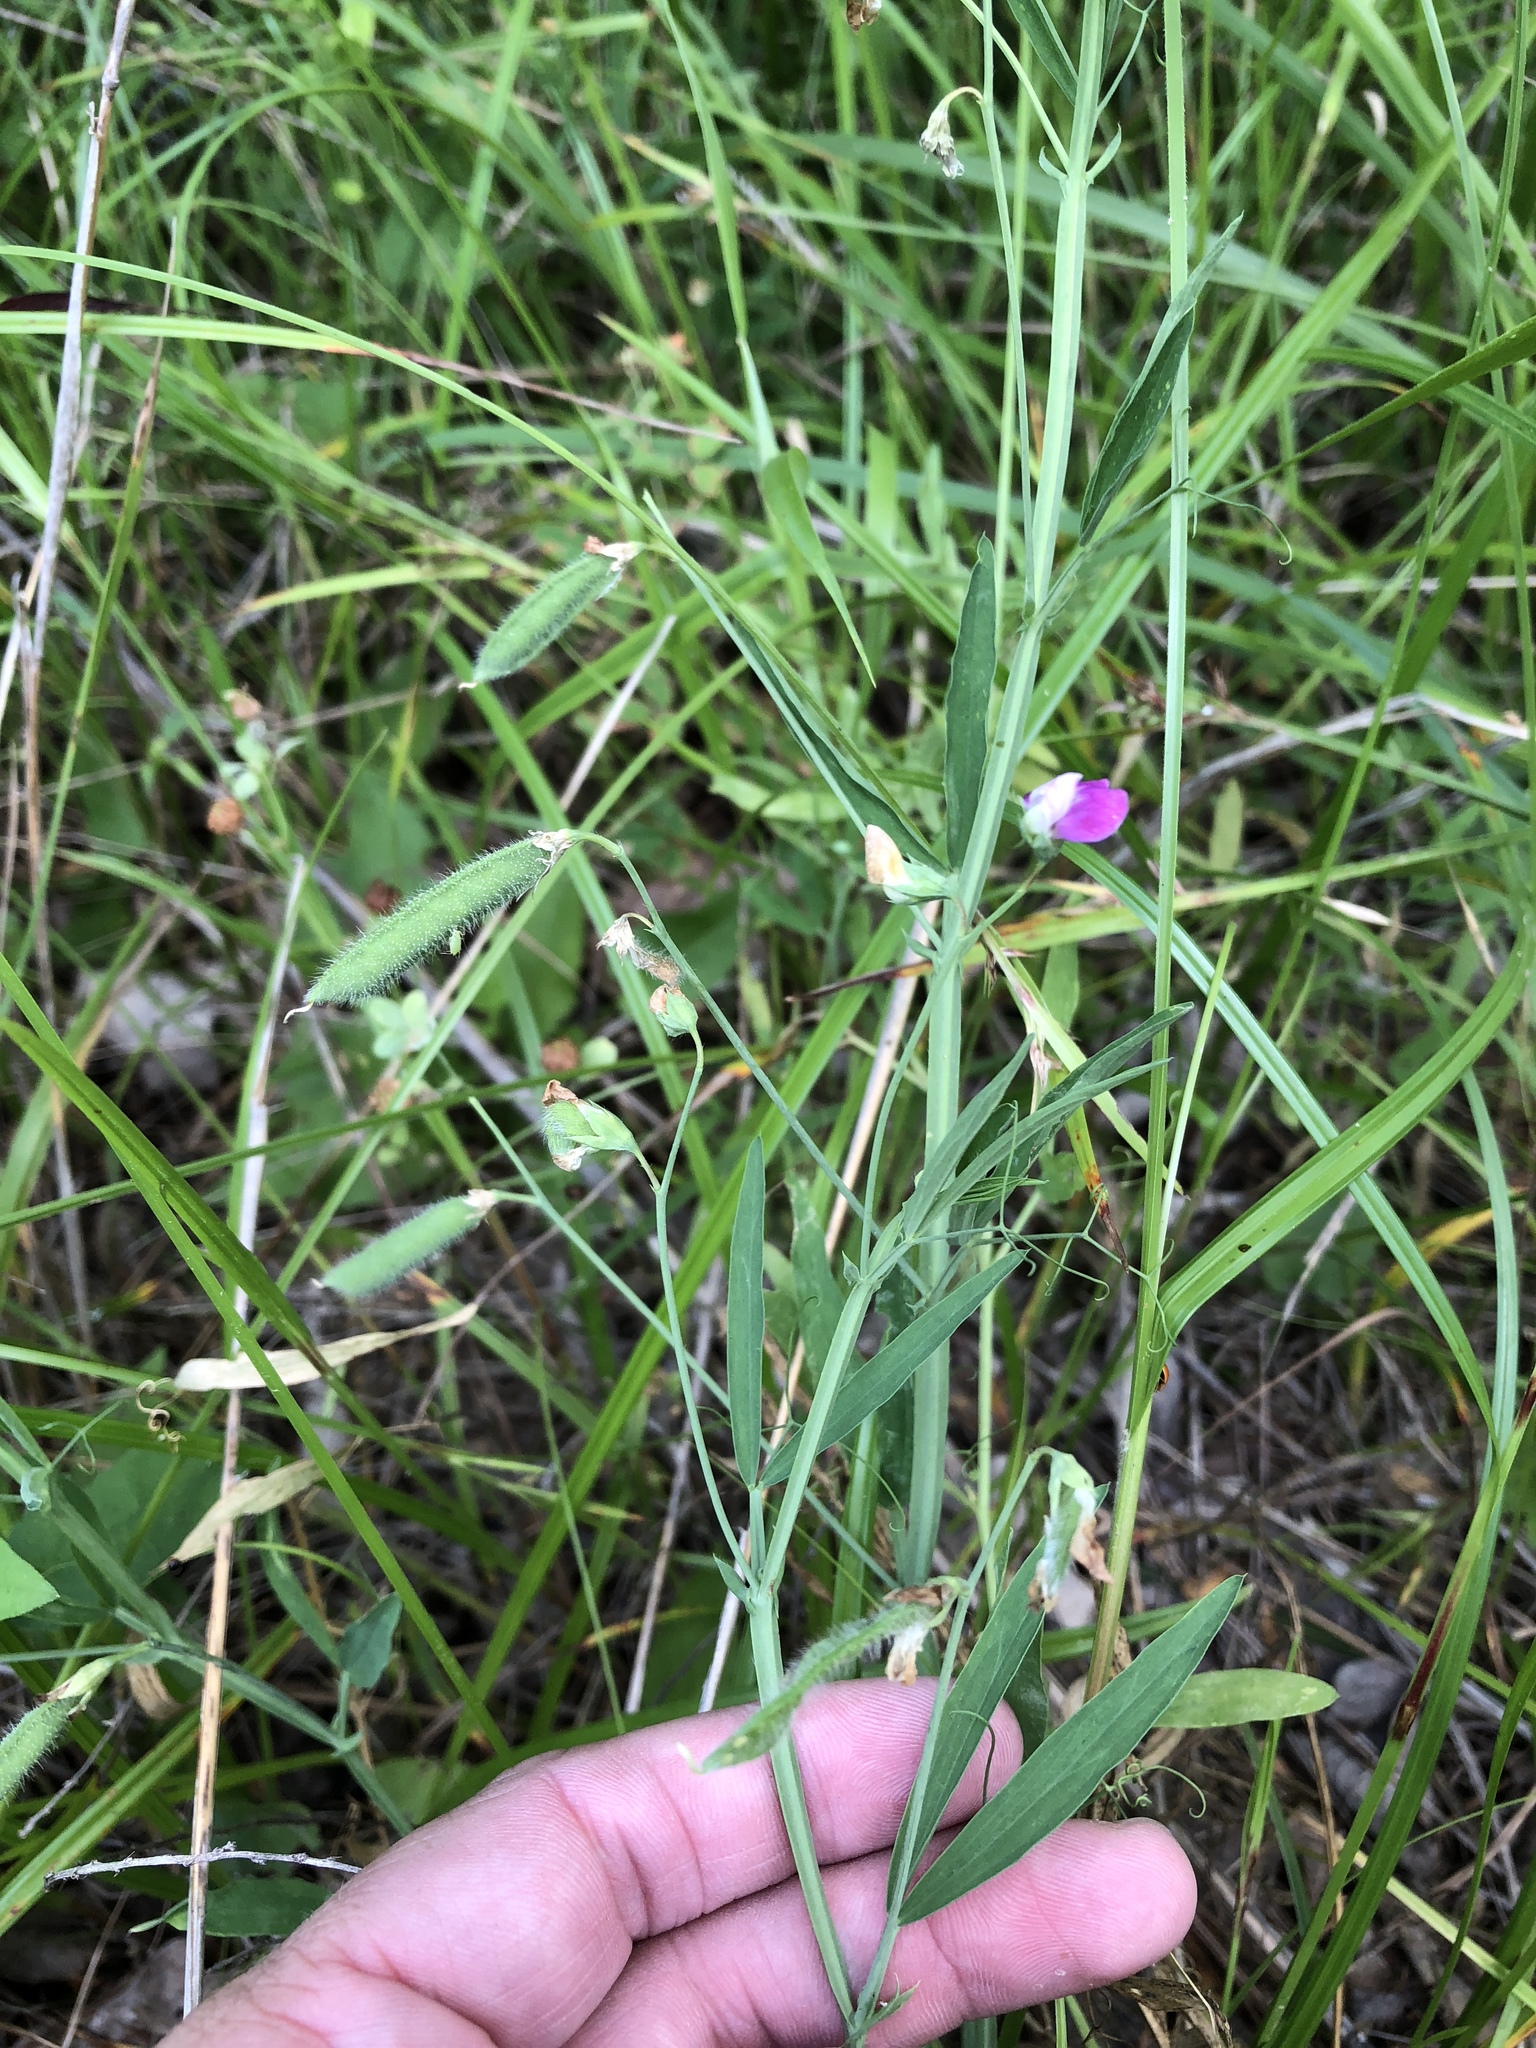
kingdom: Plantae
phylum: Tracheophyta
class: Magnoliopsida
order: Fabales
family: Fabaceae
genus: Lathyrus
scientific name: Lathyrus hirsutus
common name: Hairy vetchling
